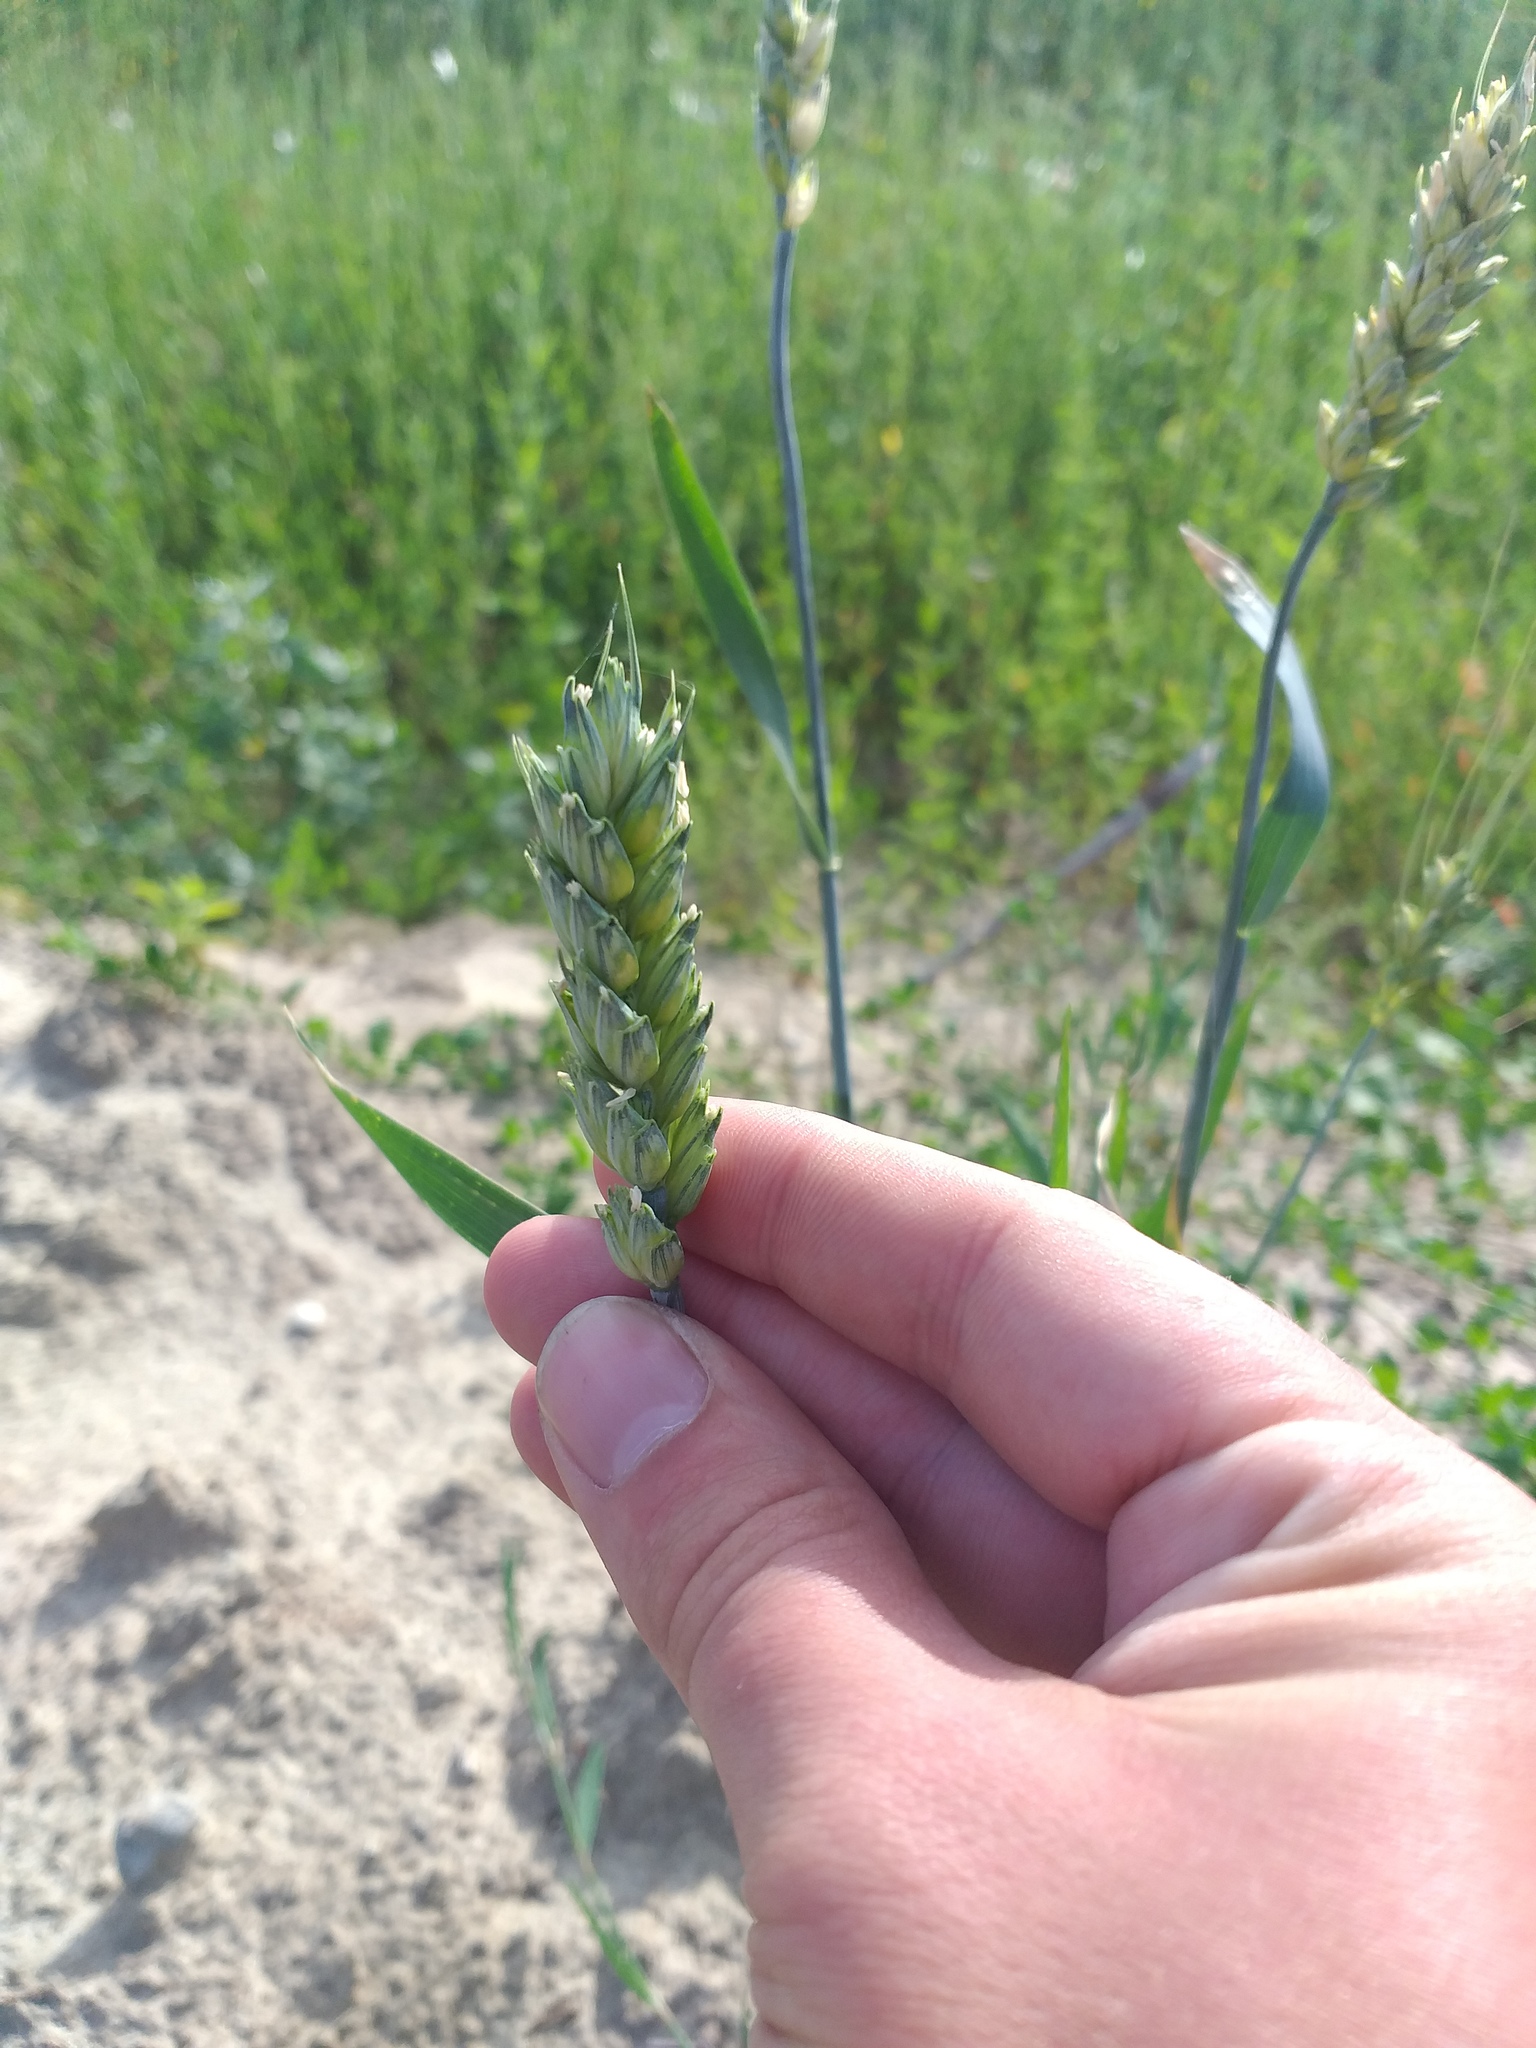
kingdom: Plantae
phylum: Tracheophyta
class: Liliopsida
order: Poales
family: Poaceae
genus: Triticum
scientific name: Triticum aestivum
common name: Common wheat
